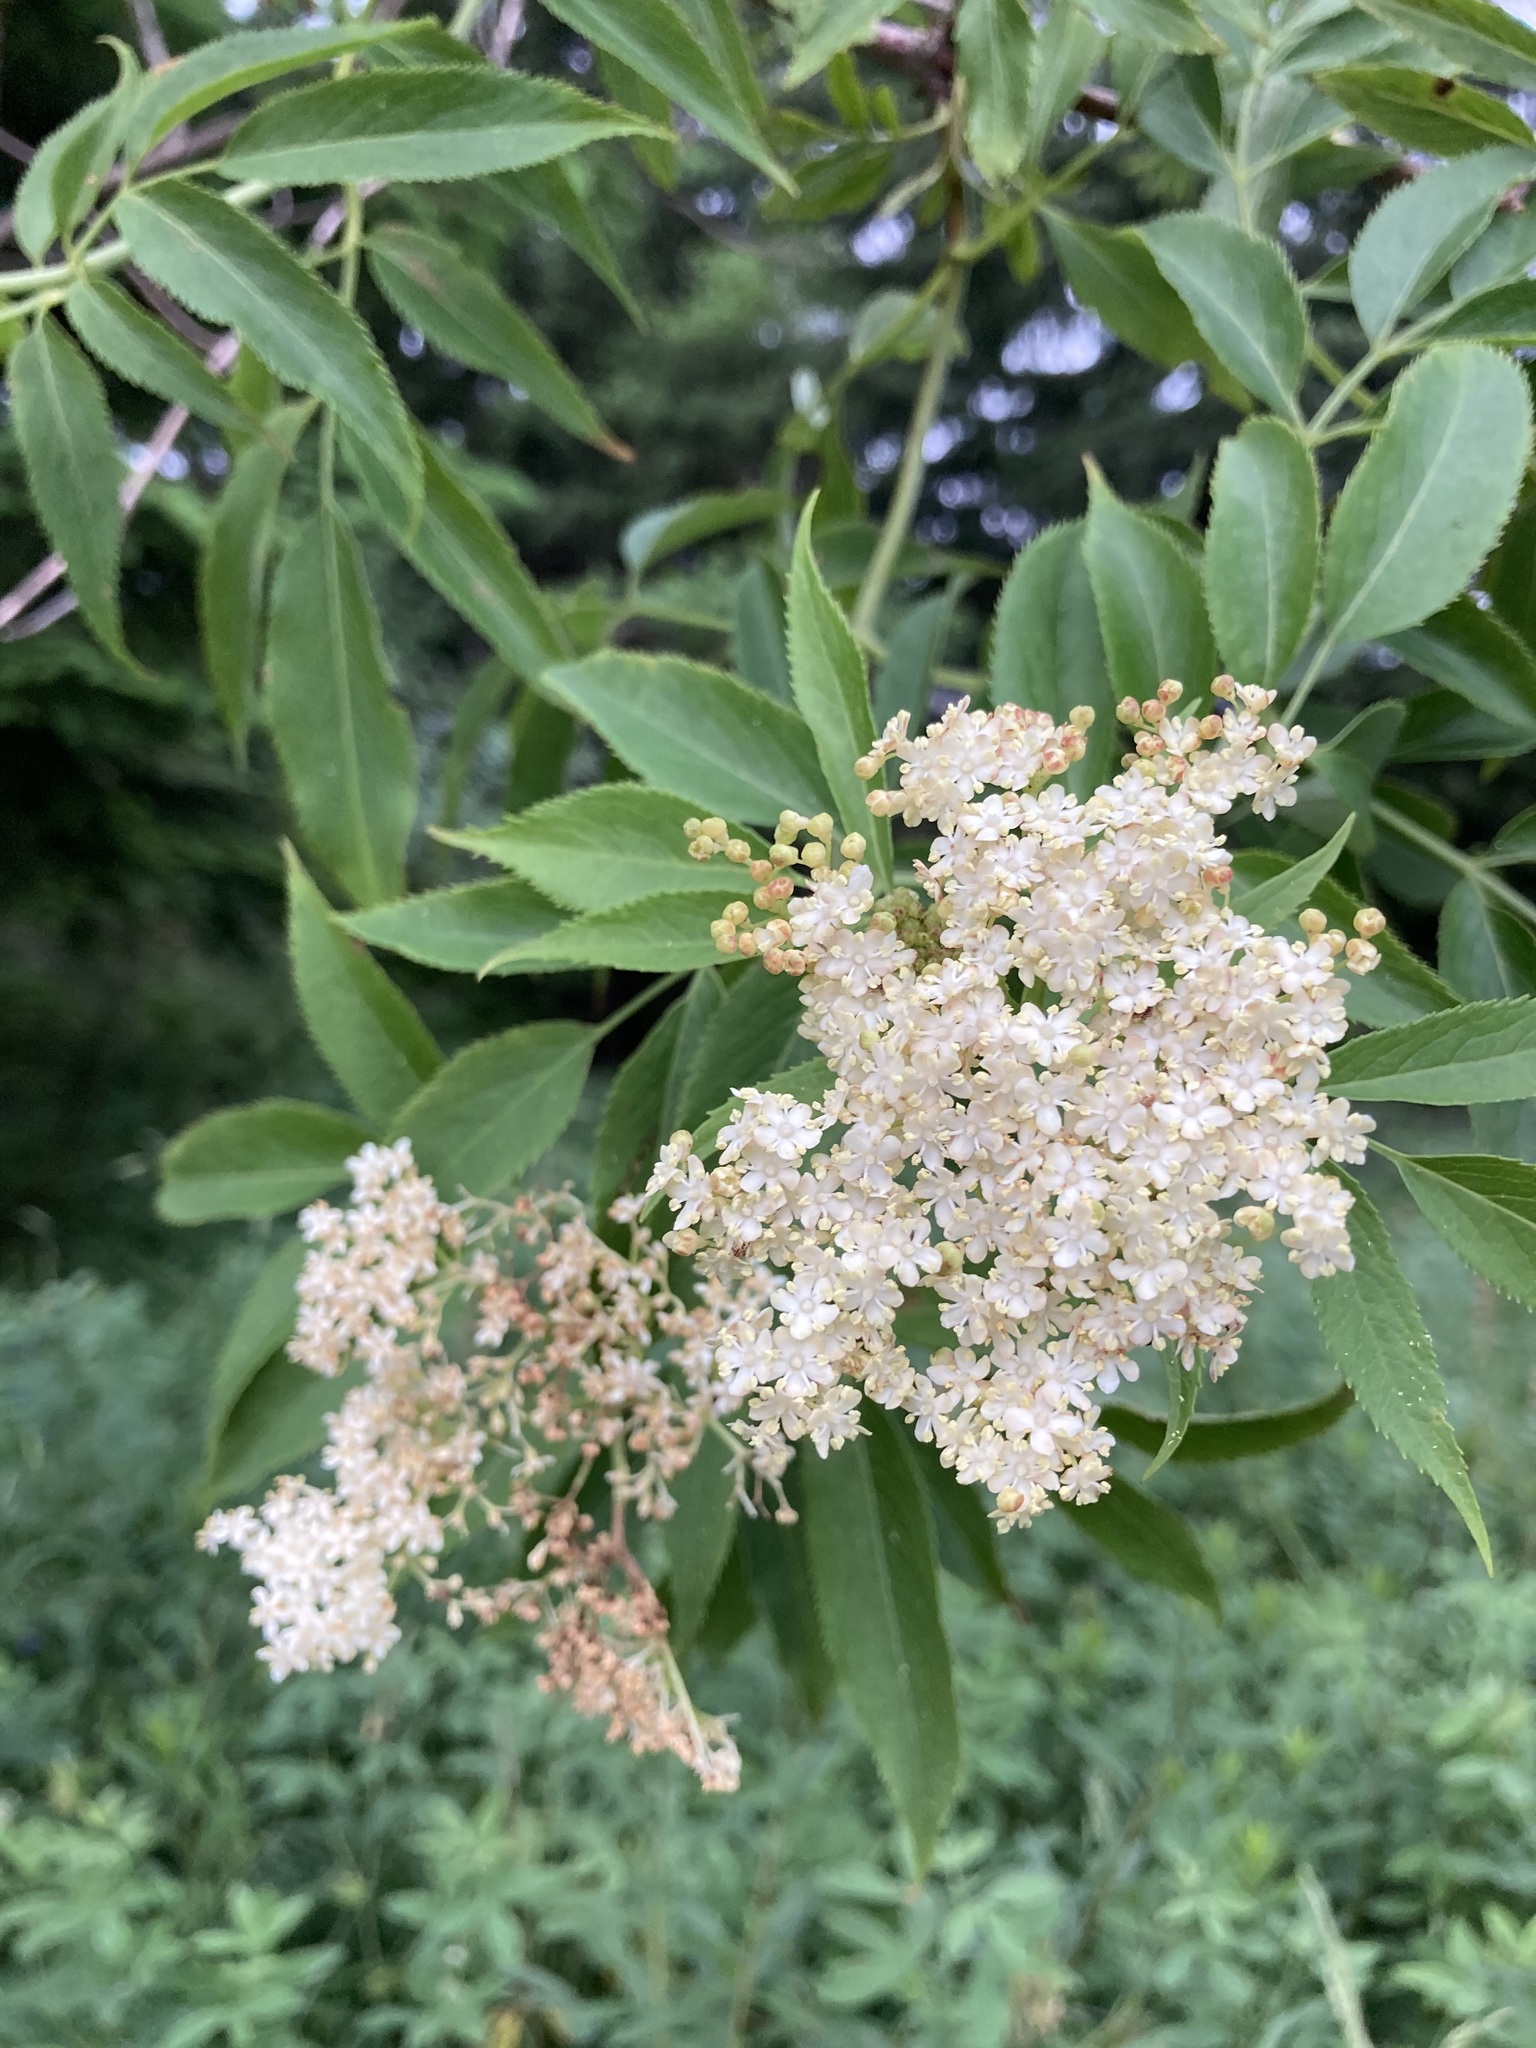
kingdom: Plantae
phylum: Tracheophyta
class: Magnoliopsida
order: Dipsacales
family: Viburnaceae
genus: Sambucus
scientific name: Sambucus cerulea
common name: Blue elder
